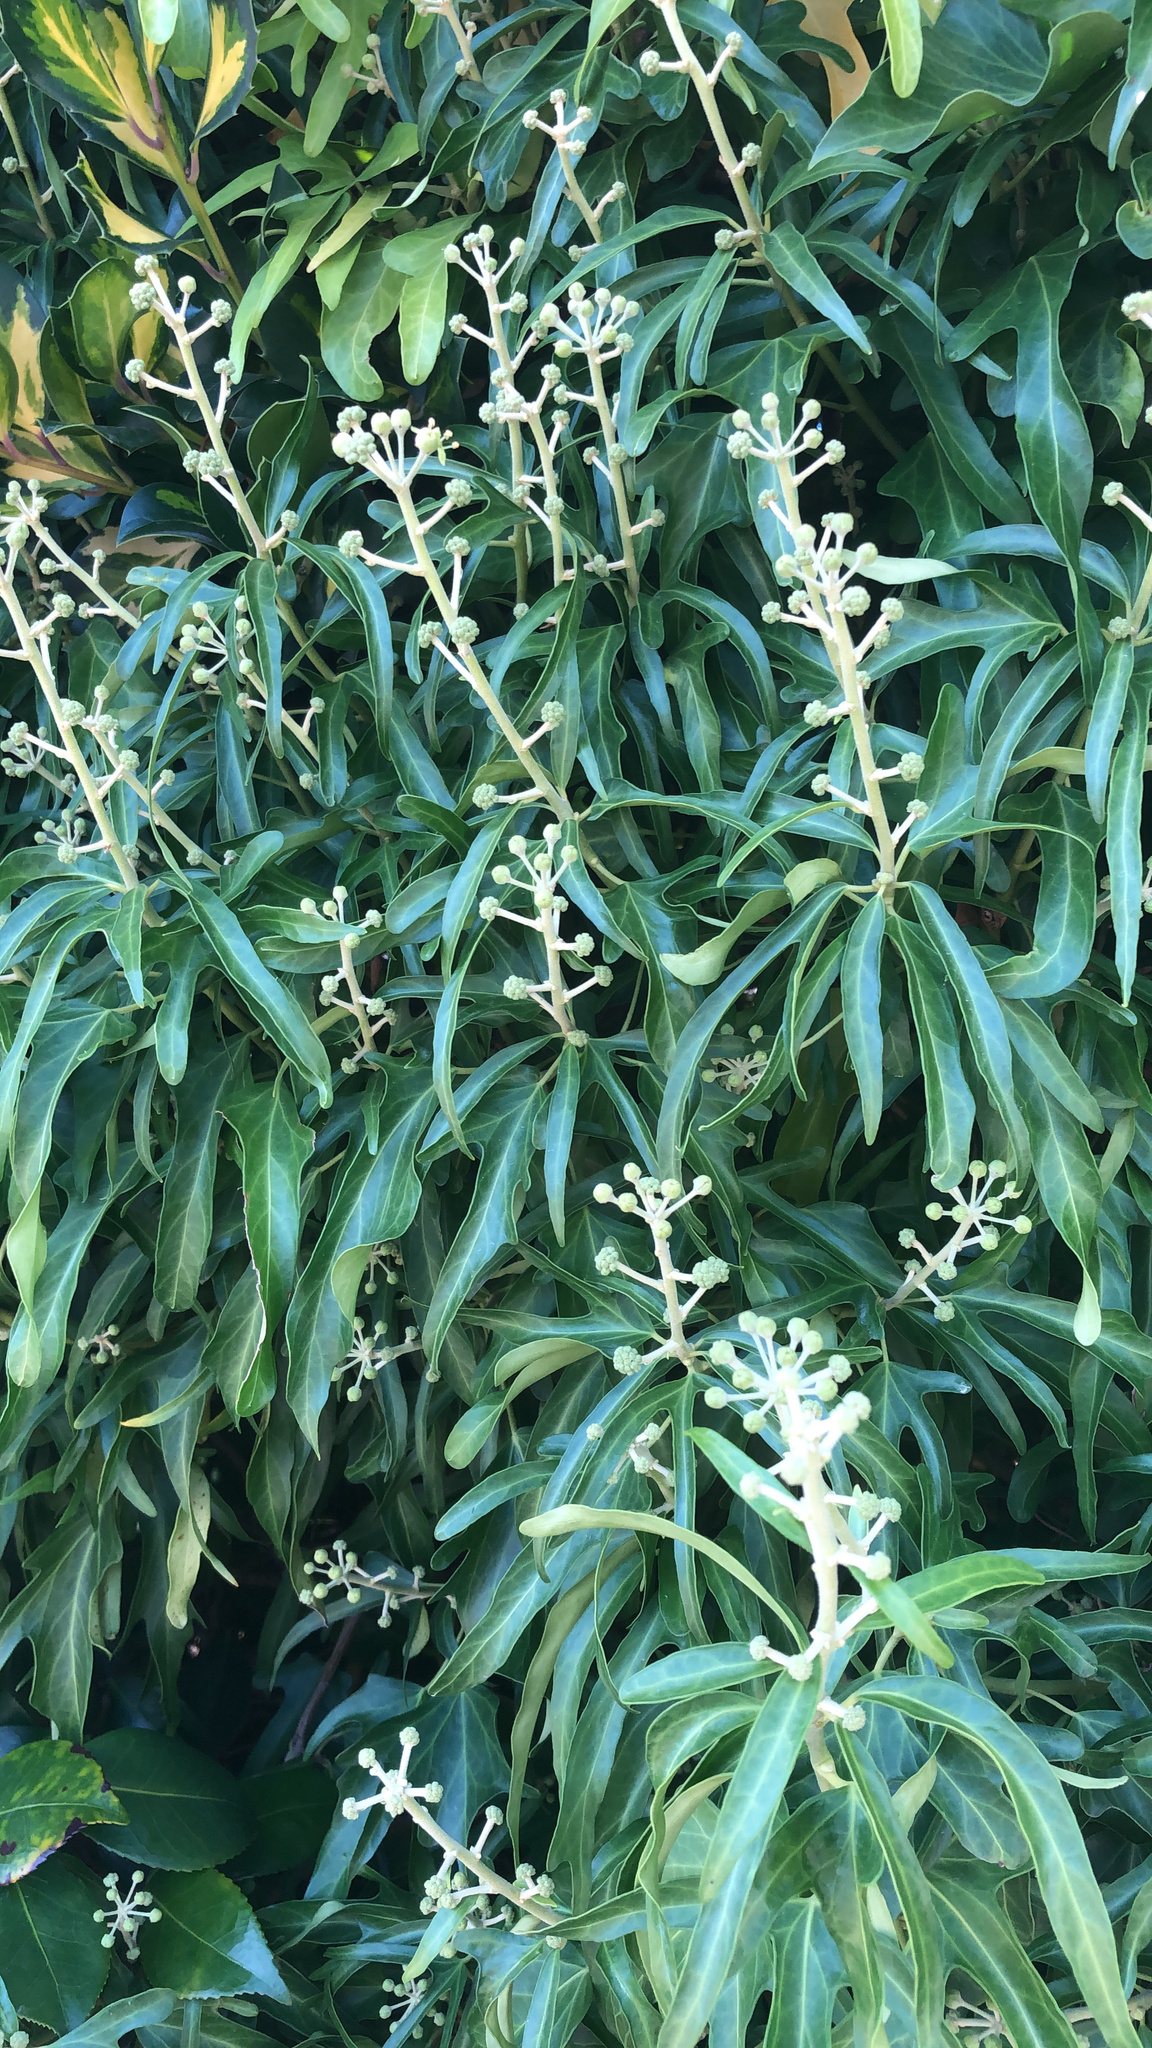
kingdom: Plantae
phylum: Tracheophyta
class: Magnoliopsida
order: Apiales
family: Araliaceae
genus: Hedera
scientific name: Hedera
